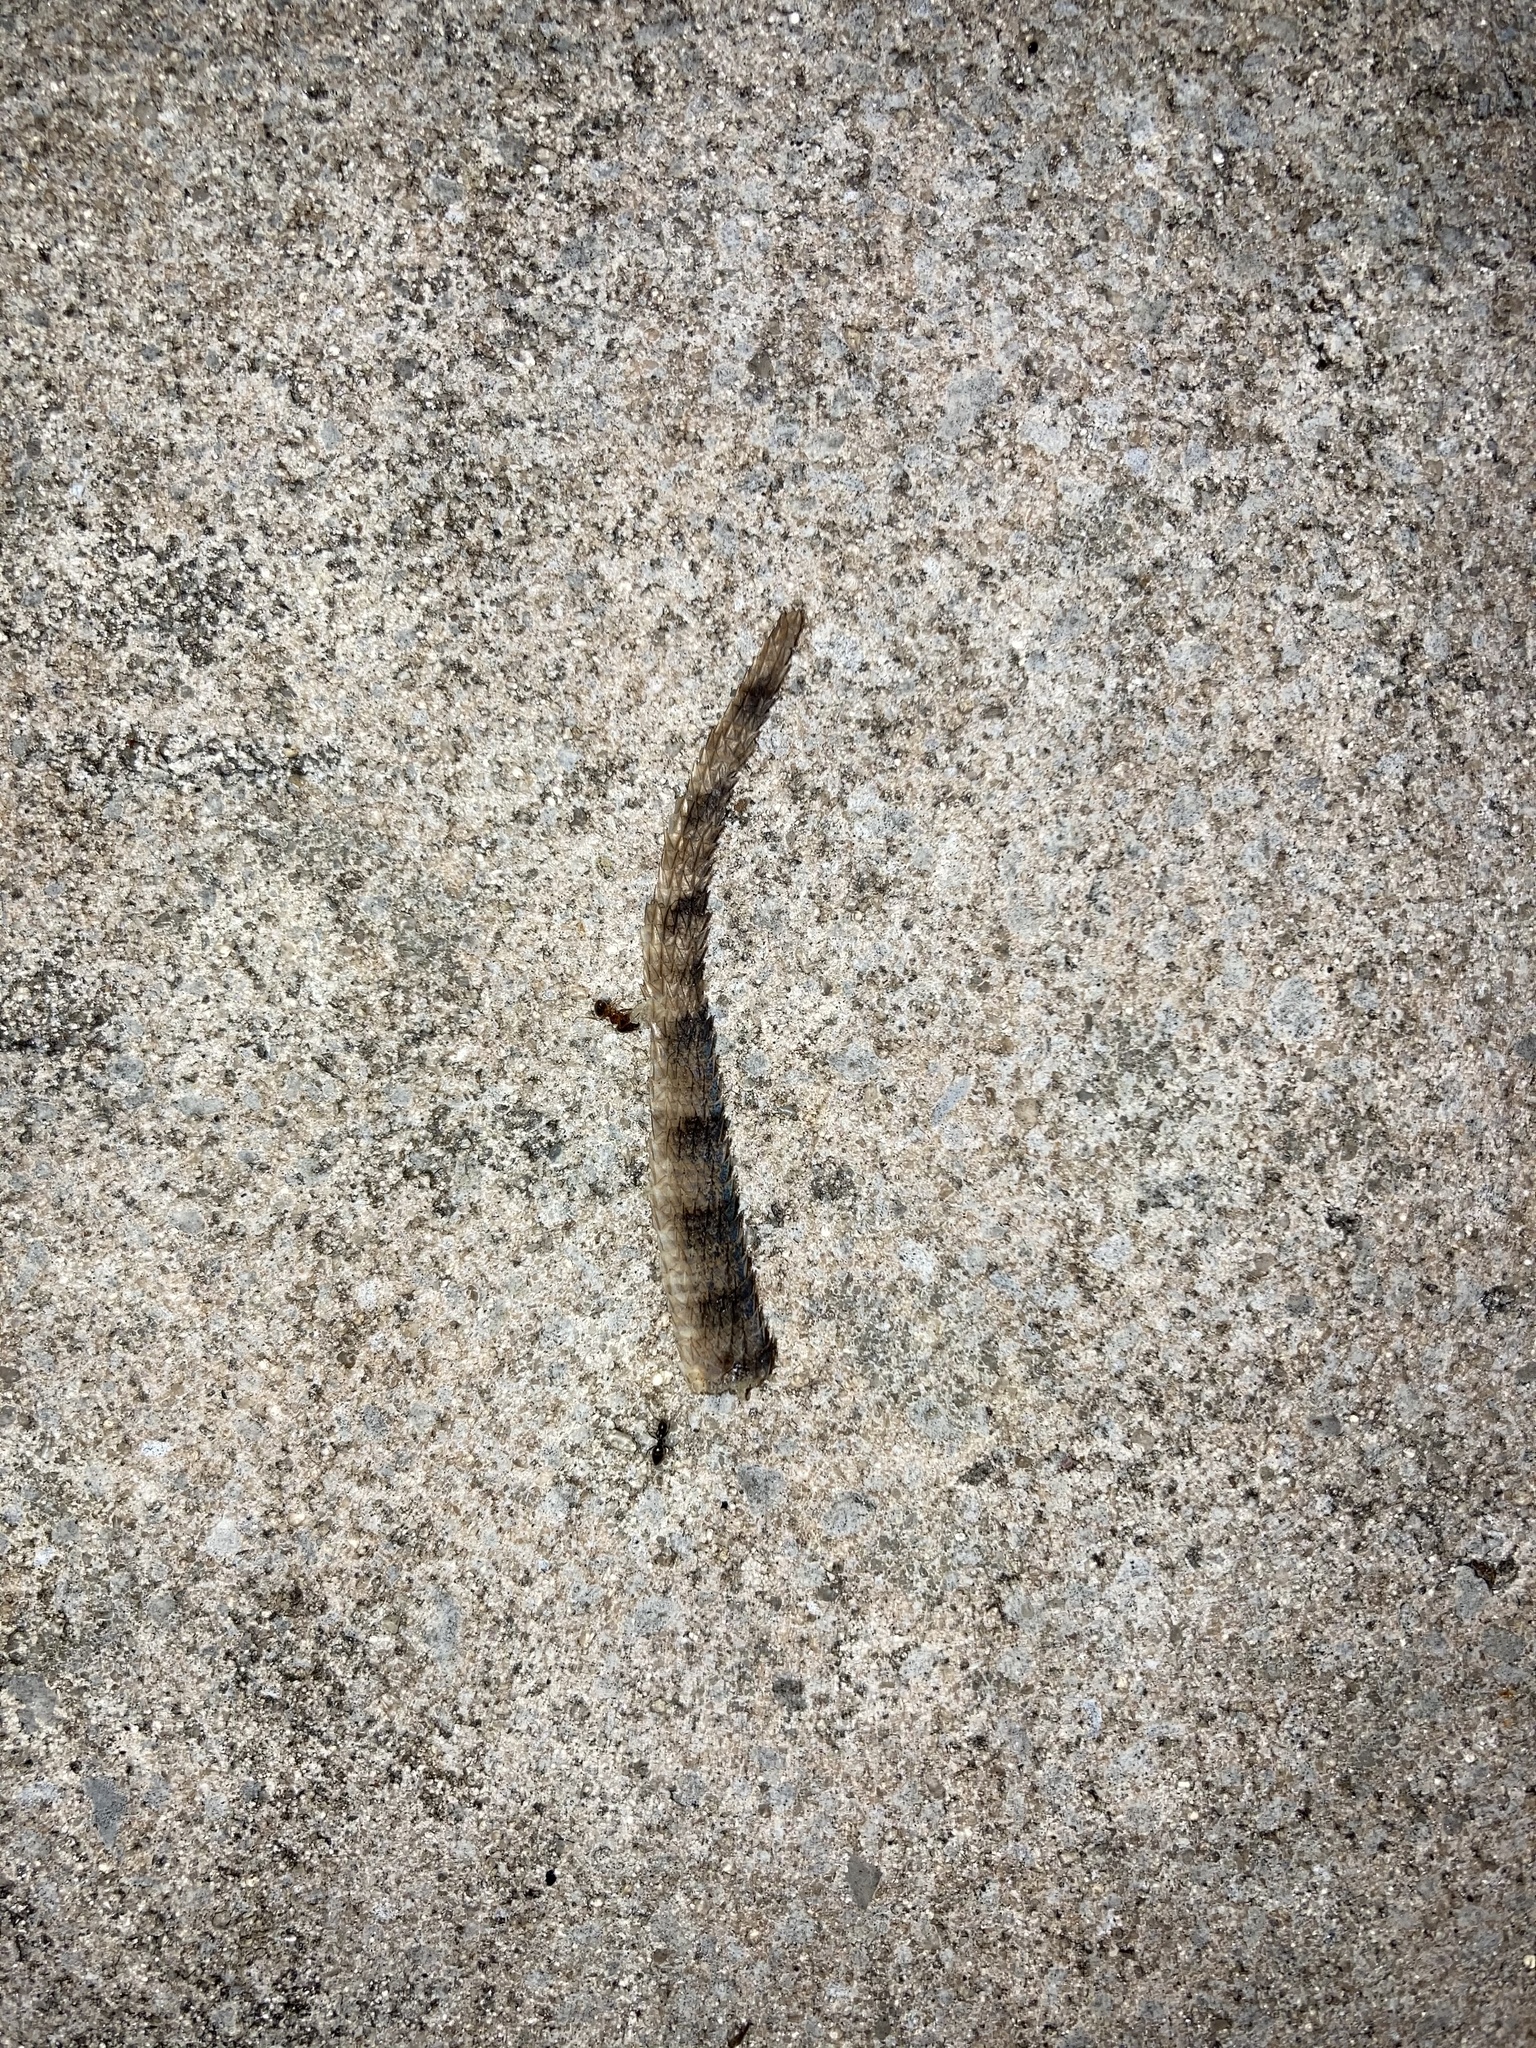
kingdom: Animalia
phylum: Chordata
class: Squamata
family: Leiocephalidae
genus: Leiocephalus
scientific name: Leiocephalus carinatus
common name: Northern curly-tailed lizard
